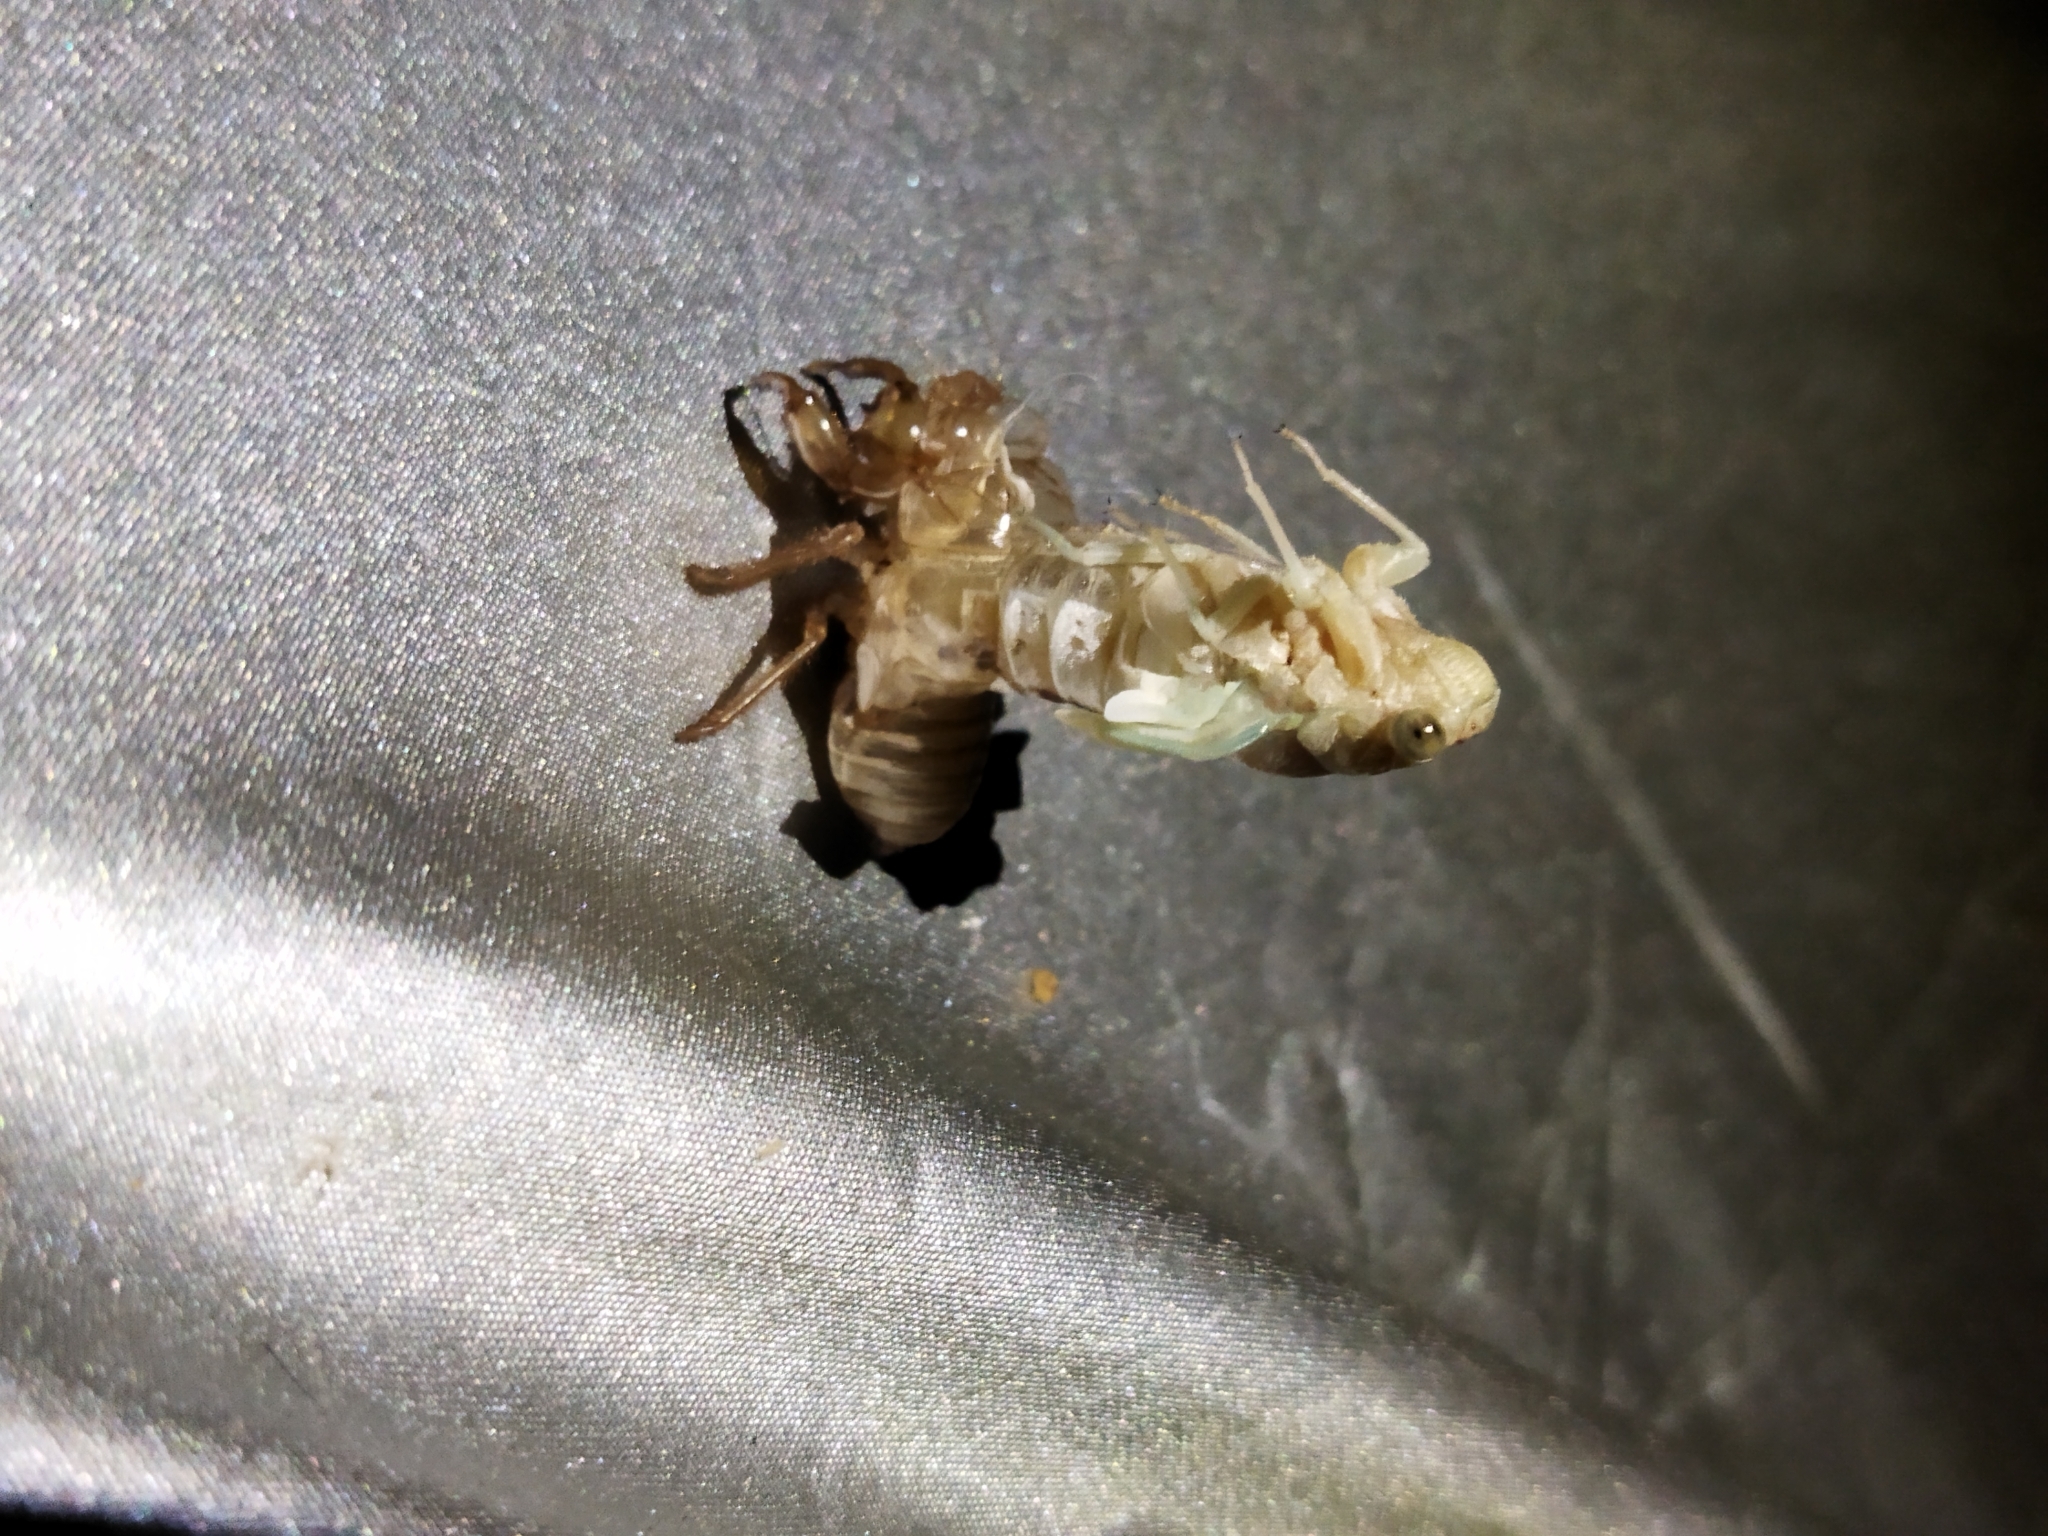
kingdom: Animalia
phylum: Arthropoda
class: Insecta
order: Hemiptera
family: Cicadidae
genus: Cicada
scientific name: Cicada orni
